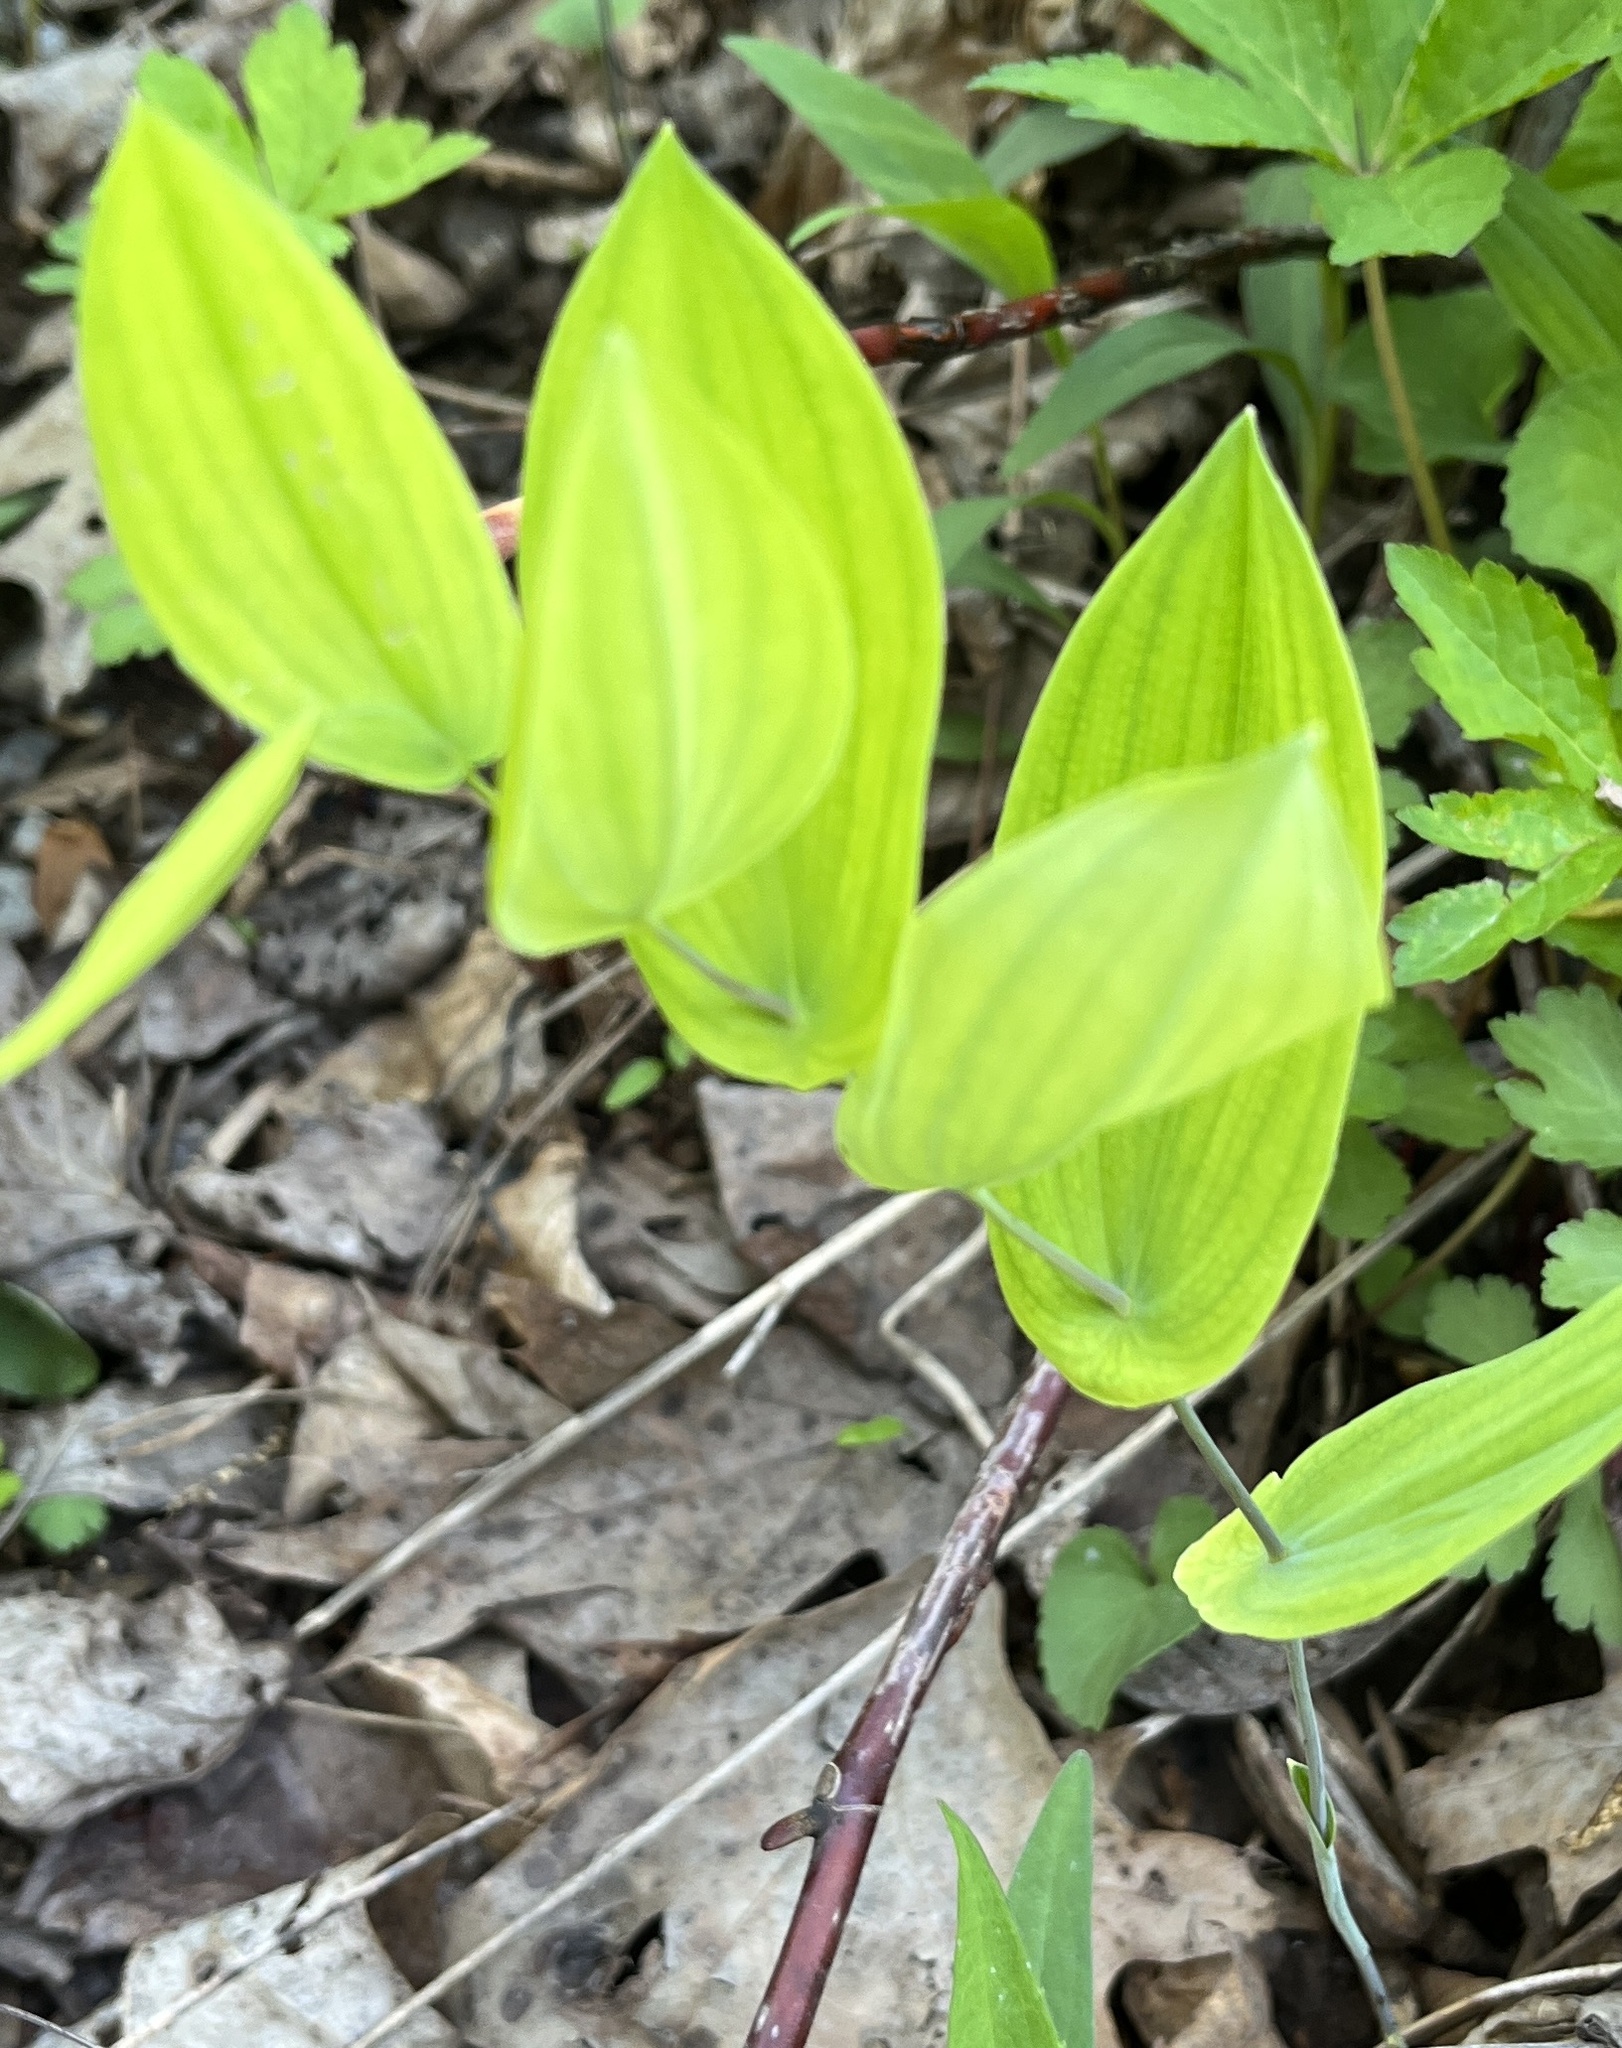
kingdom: Plantae
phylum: Tracheophyta
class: Liliopsida
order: Liliales
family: Colchicaceae
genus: Uvularia
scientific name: Uvularia perfoliata
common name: Perfoliate bellwort
